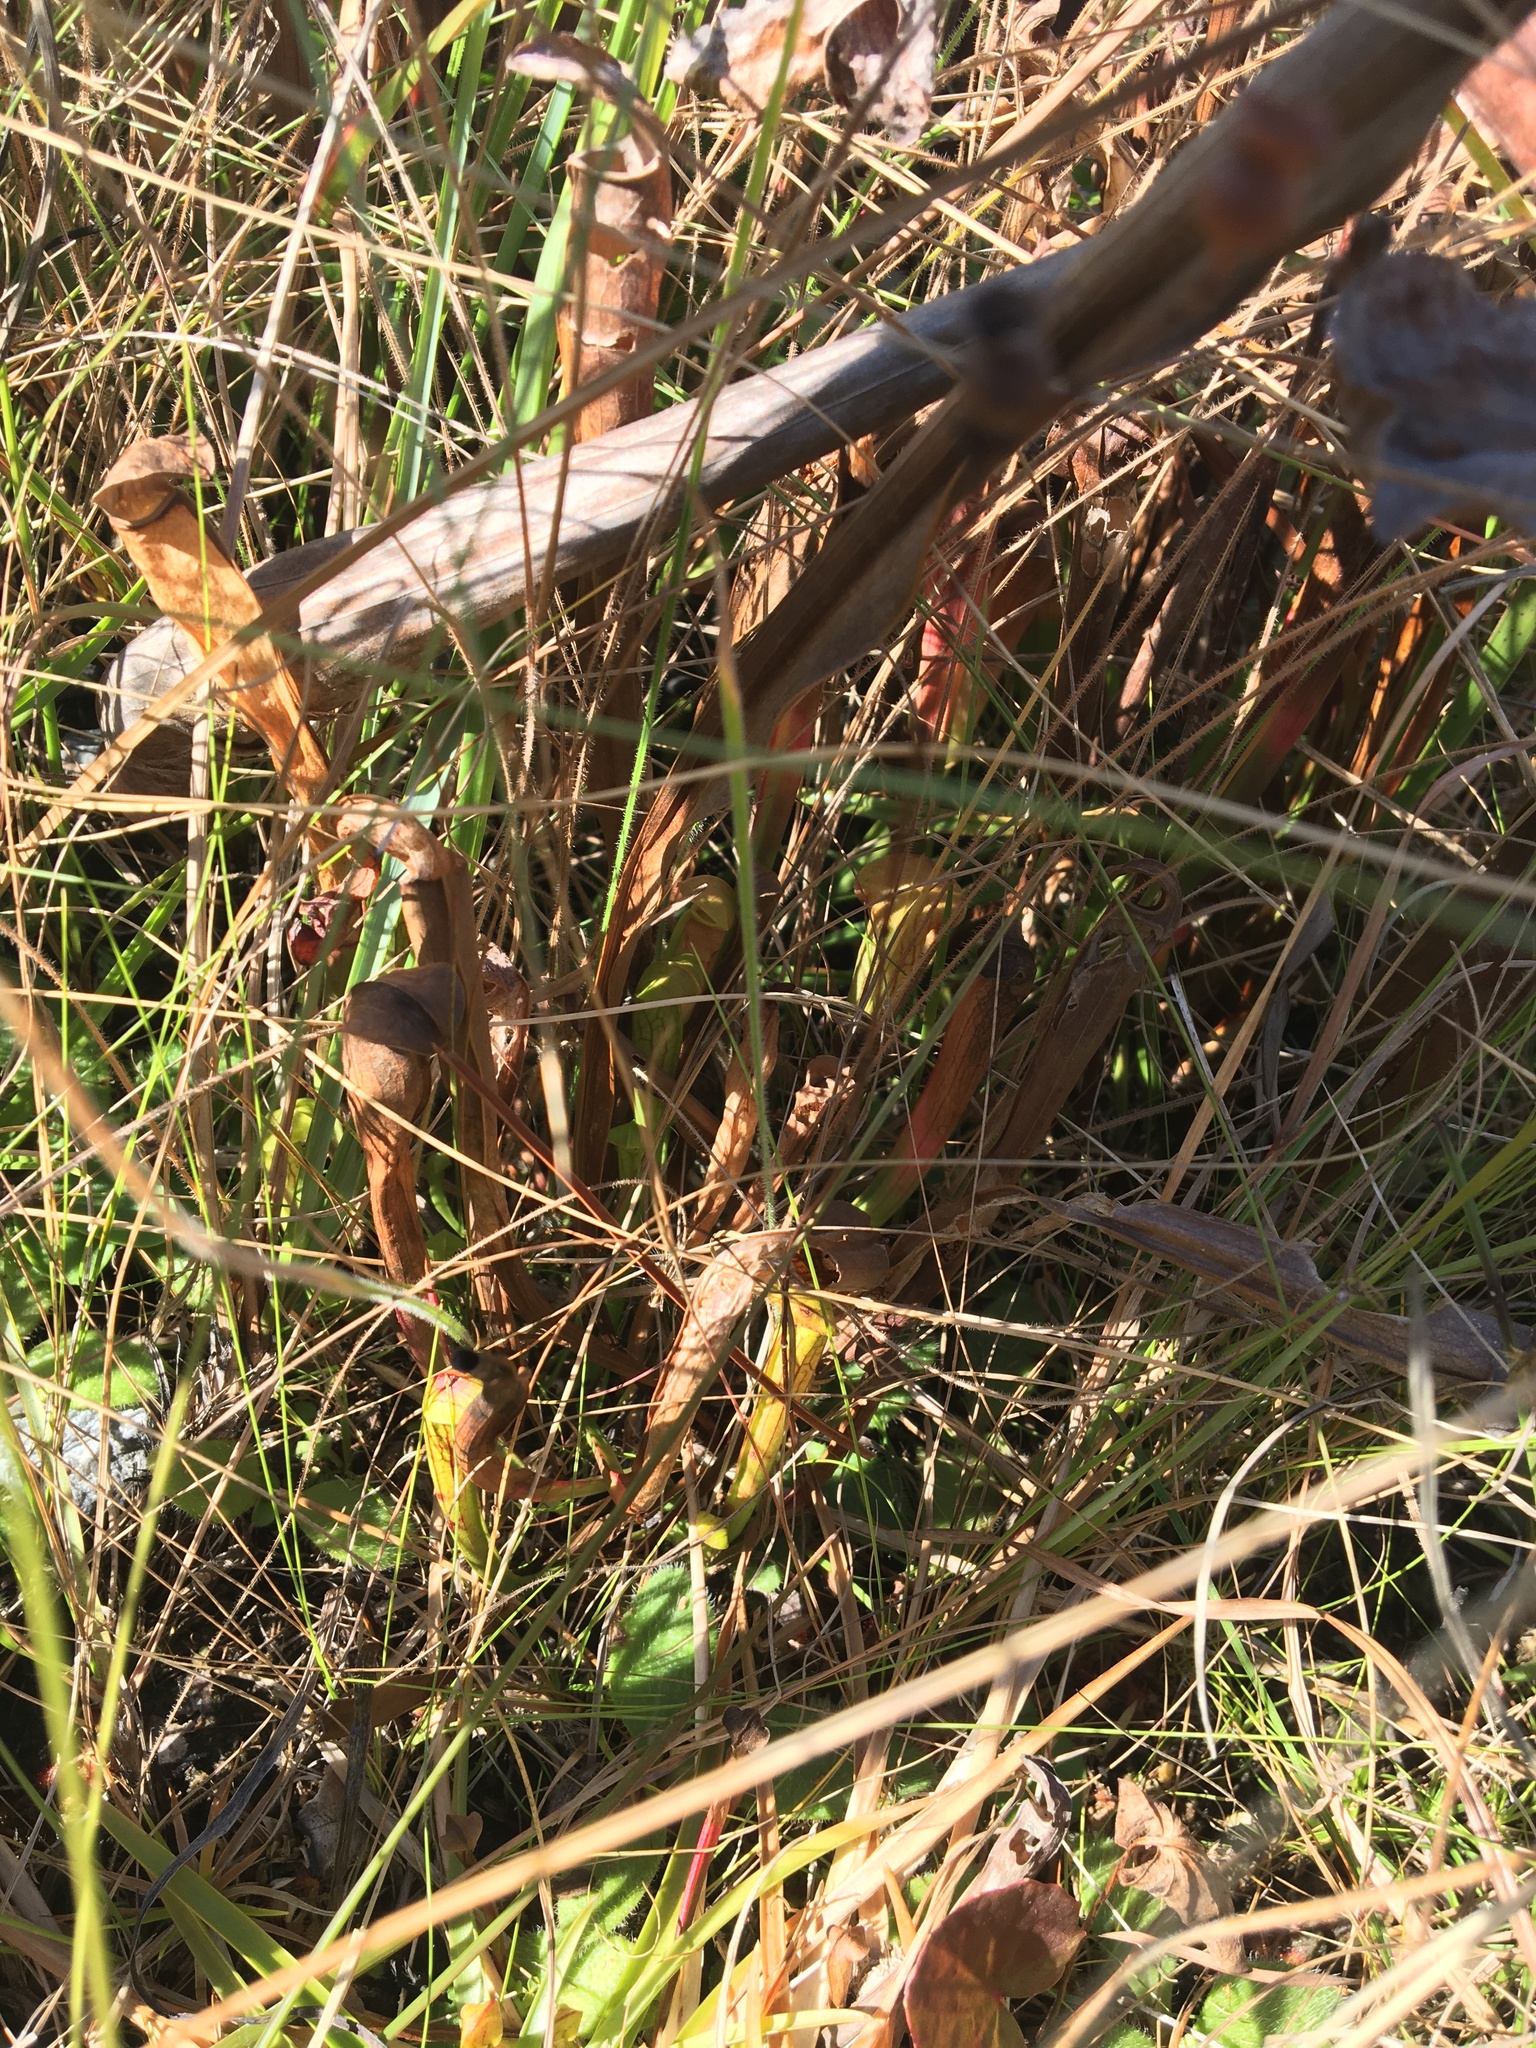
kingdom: Plantae
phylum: Tracheophyta
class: Magnoliopsida
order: Ericales
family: Sarraceniaceae
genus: Sarracenia
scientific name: Sarracenia alata
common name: Yellow trumpets
